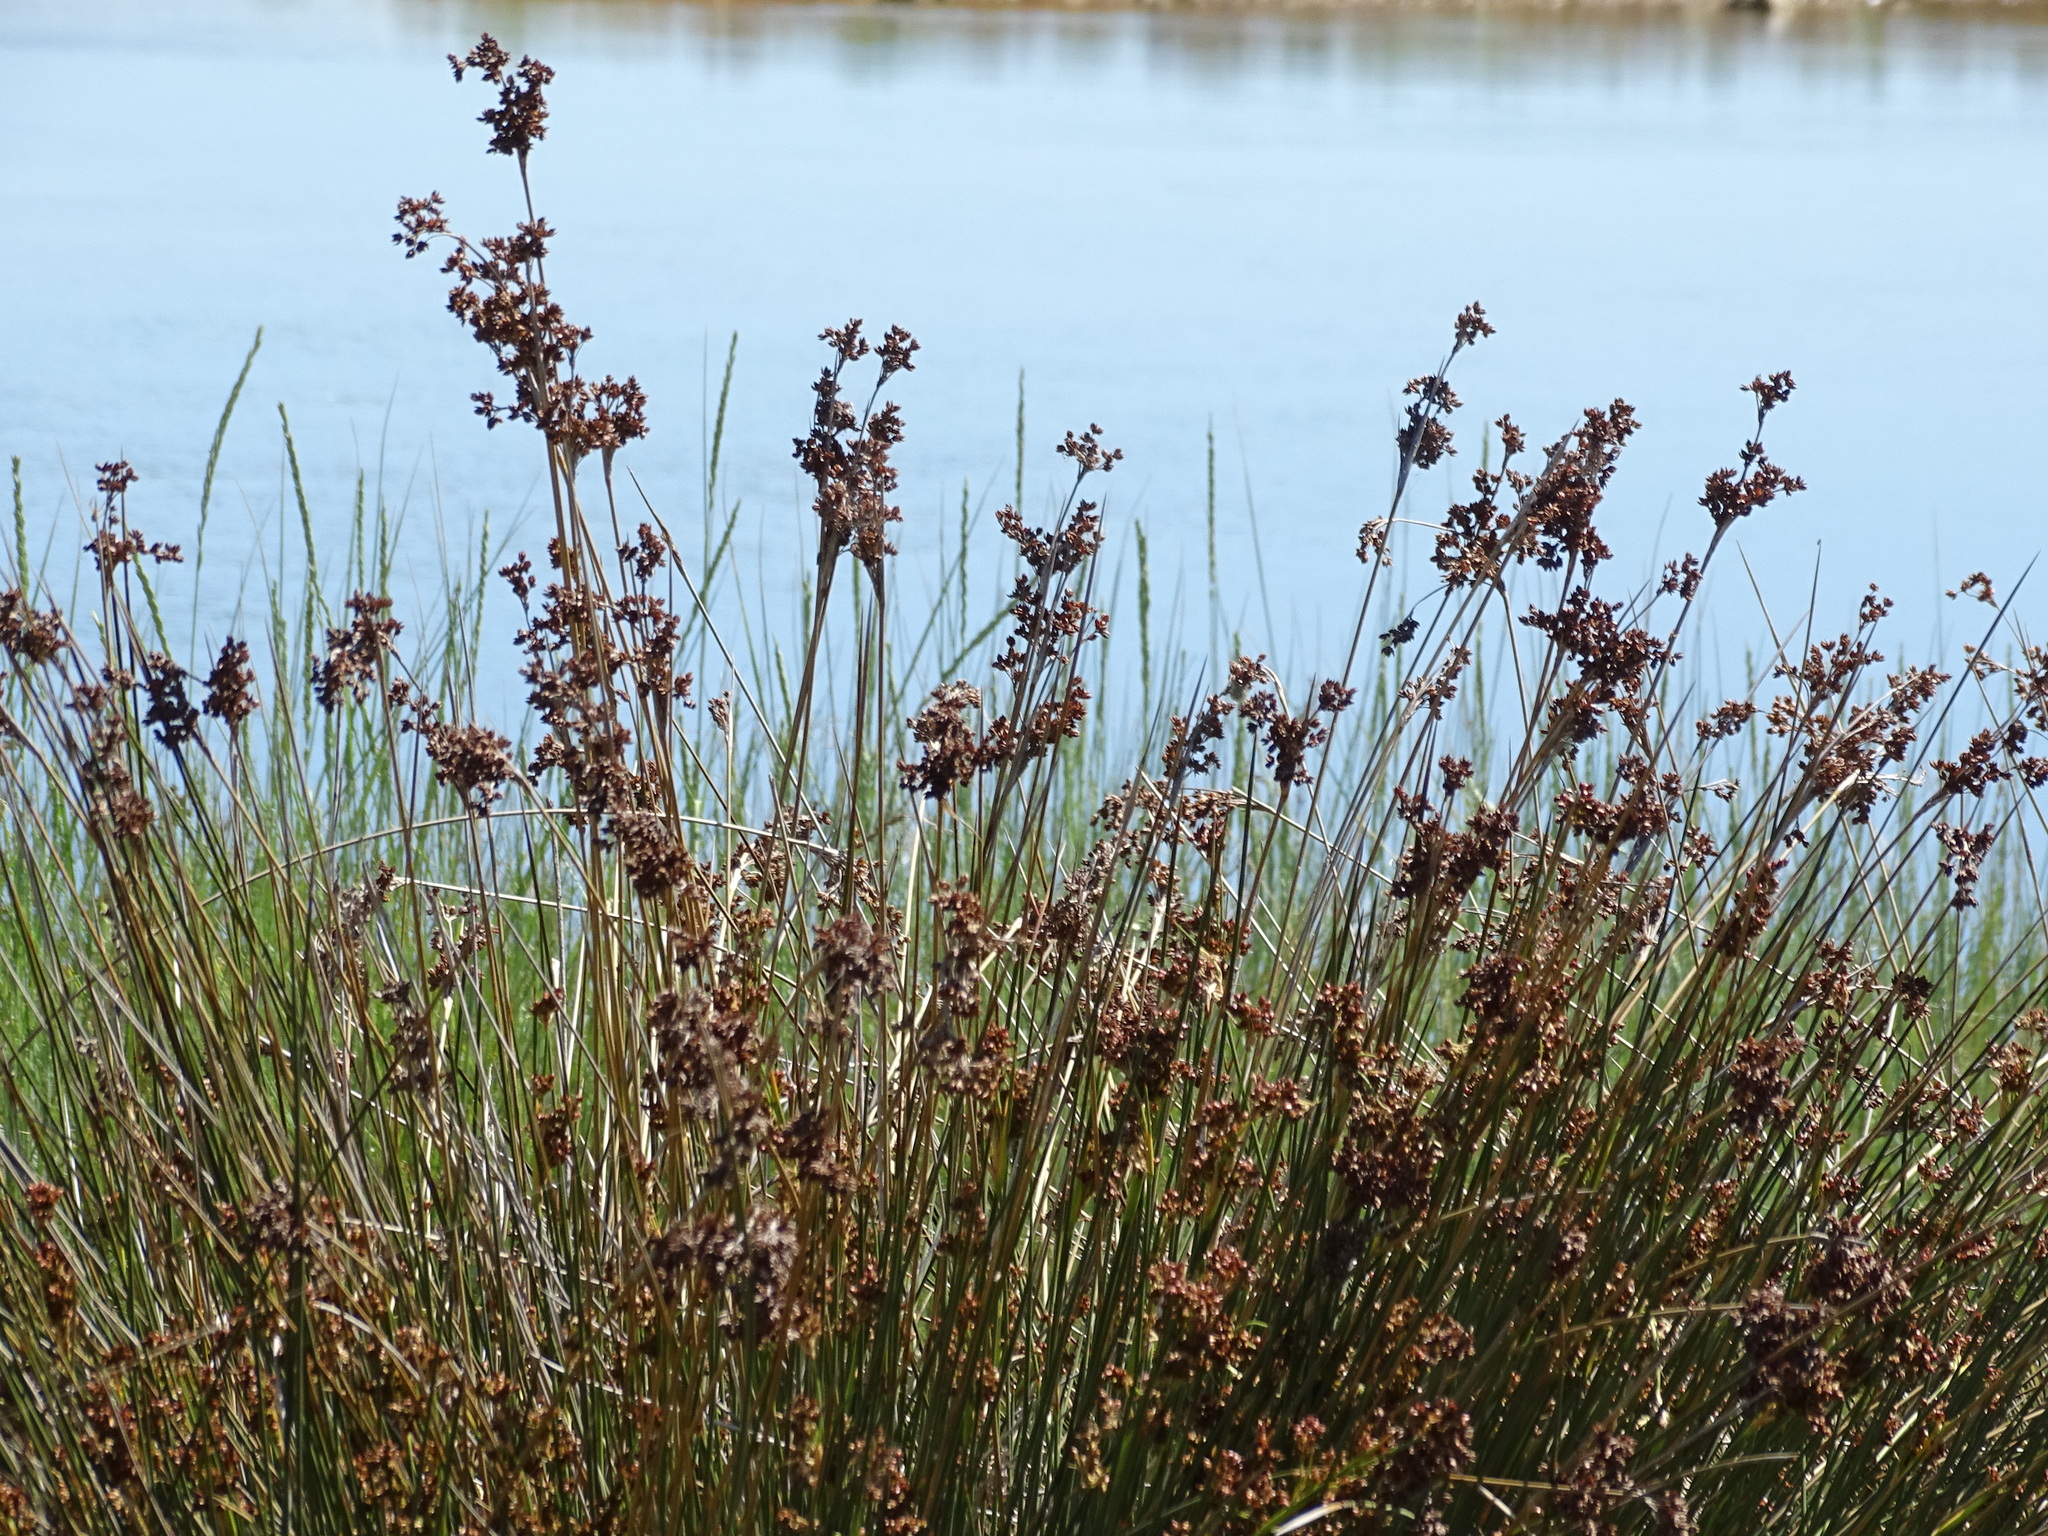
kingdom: Plantae
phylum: Tracheophyta
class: Liliopsida
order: Poales
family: Juncaceae
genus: Juncus
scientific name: Juncus acutus
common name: Sharp rush
